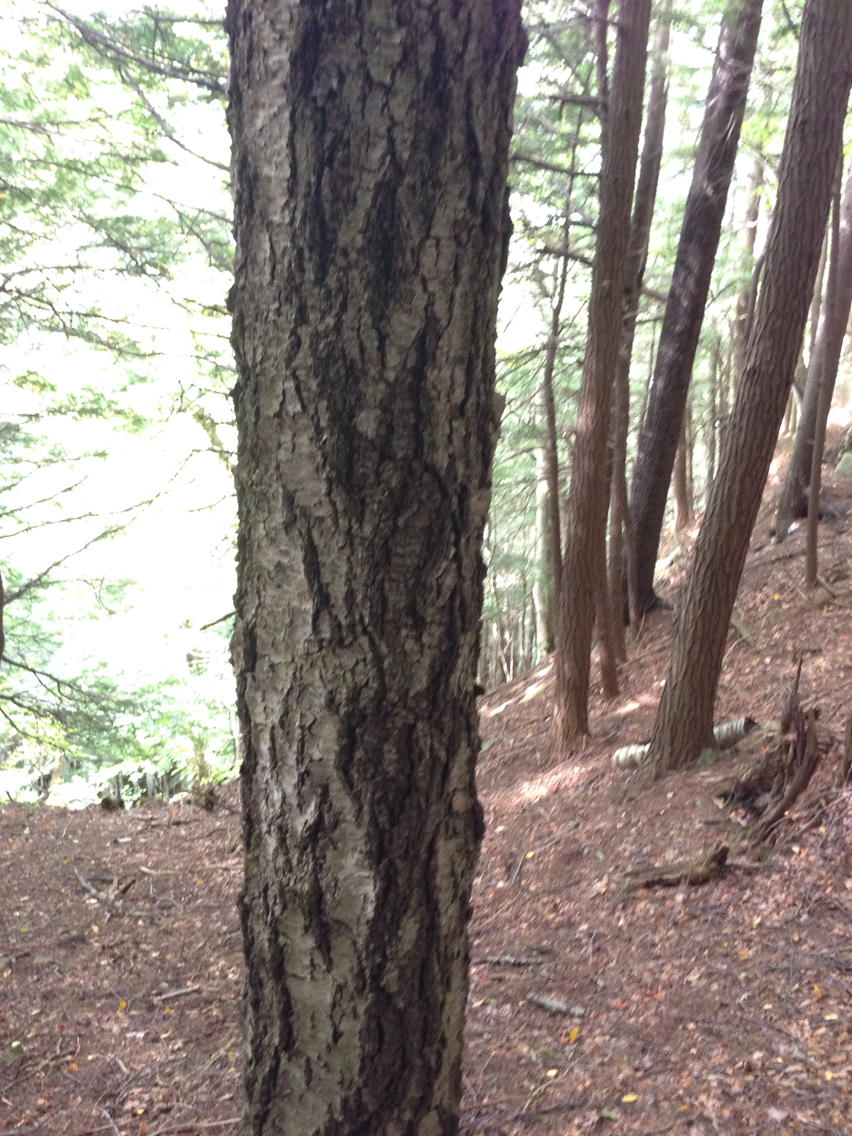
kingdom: Plantae
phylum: Tracheophyta
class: Magnoliopsida
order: Fagales
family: Betulaceae
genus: Betula
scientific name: Betula lenta
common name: Black birch
